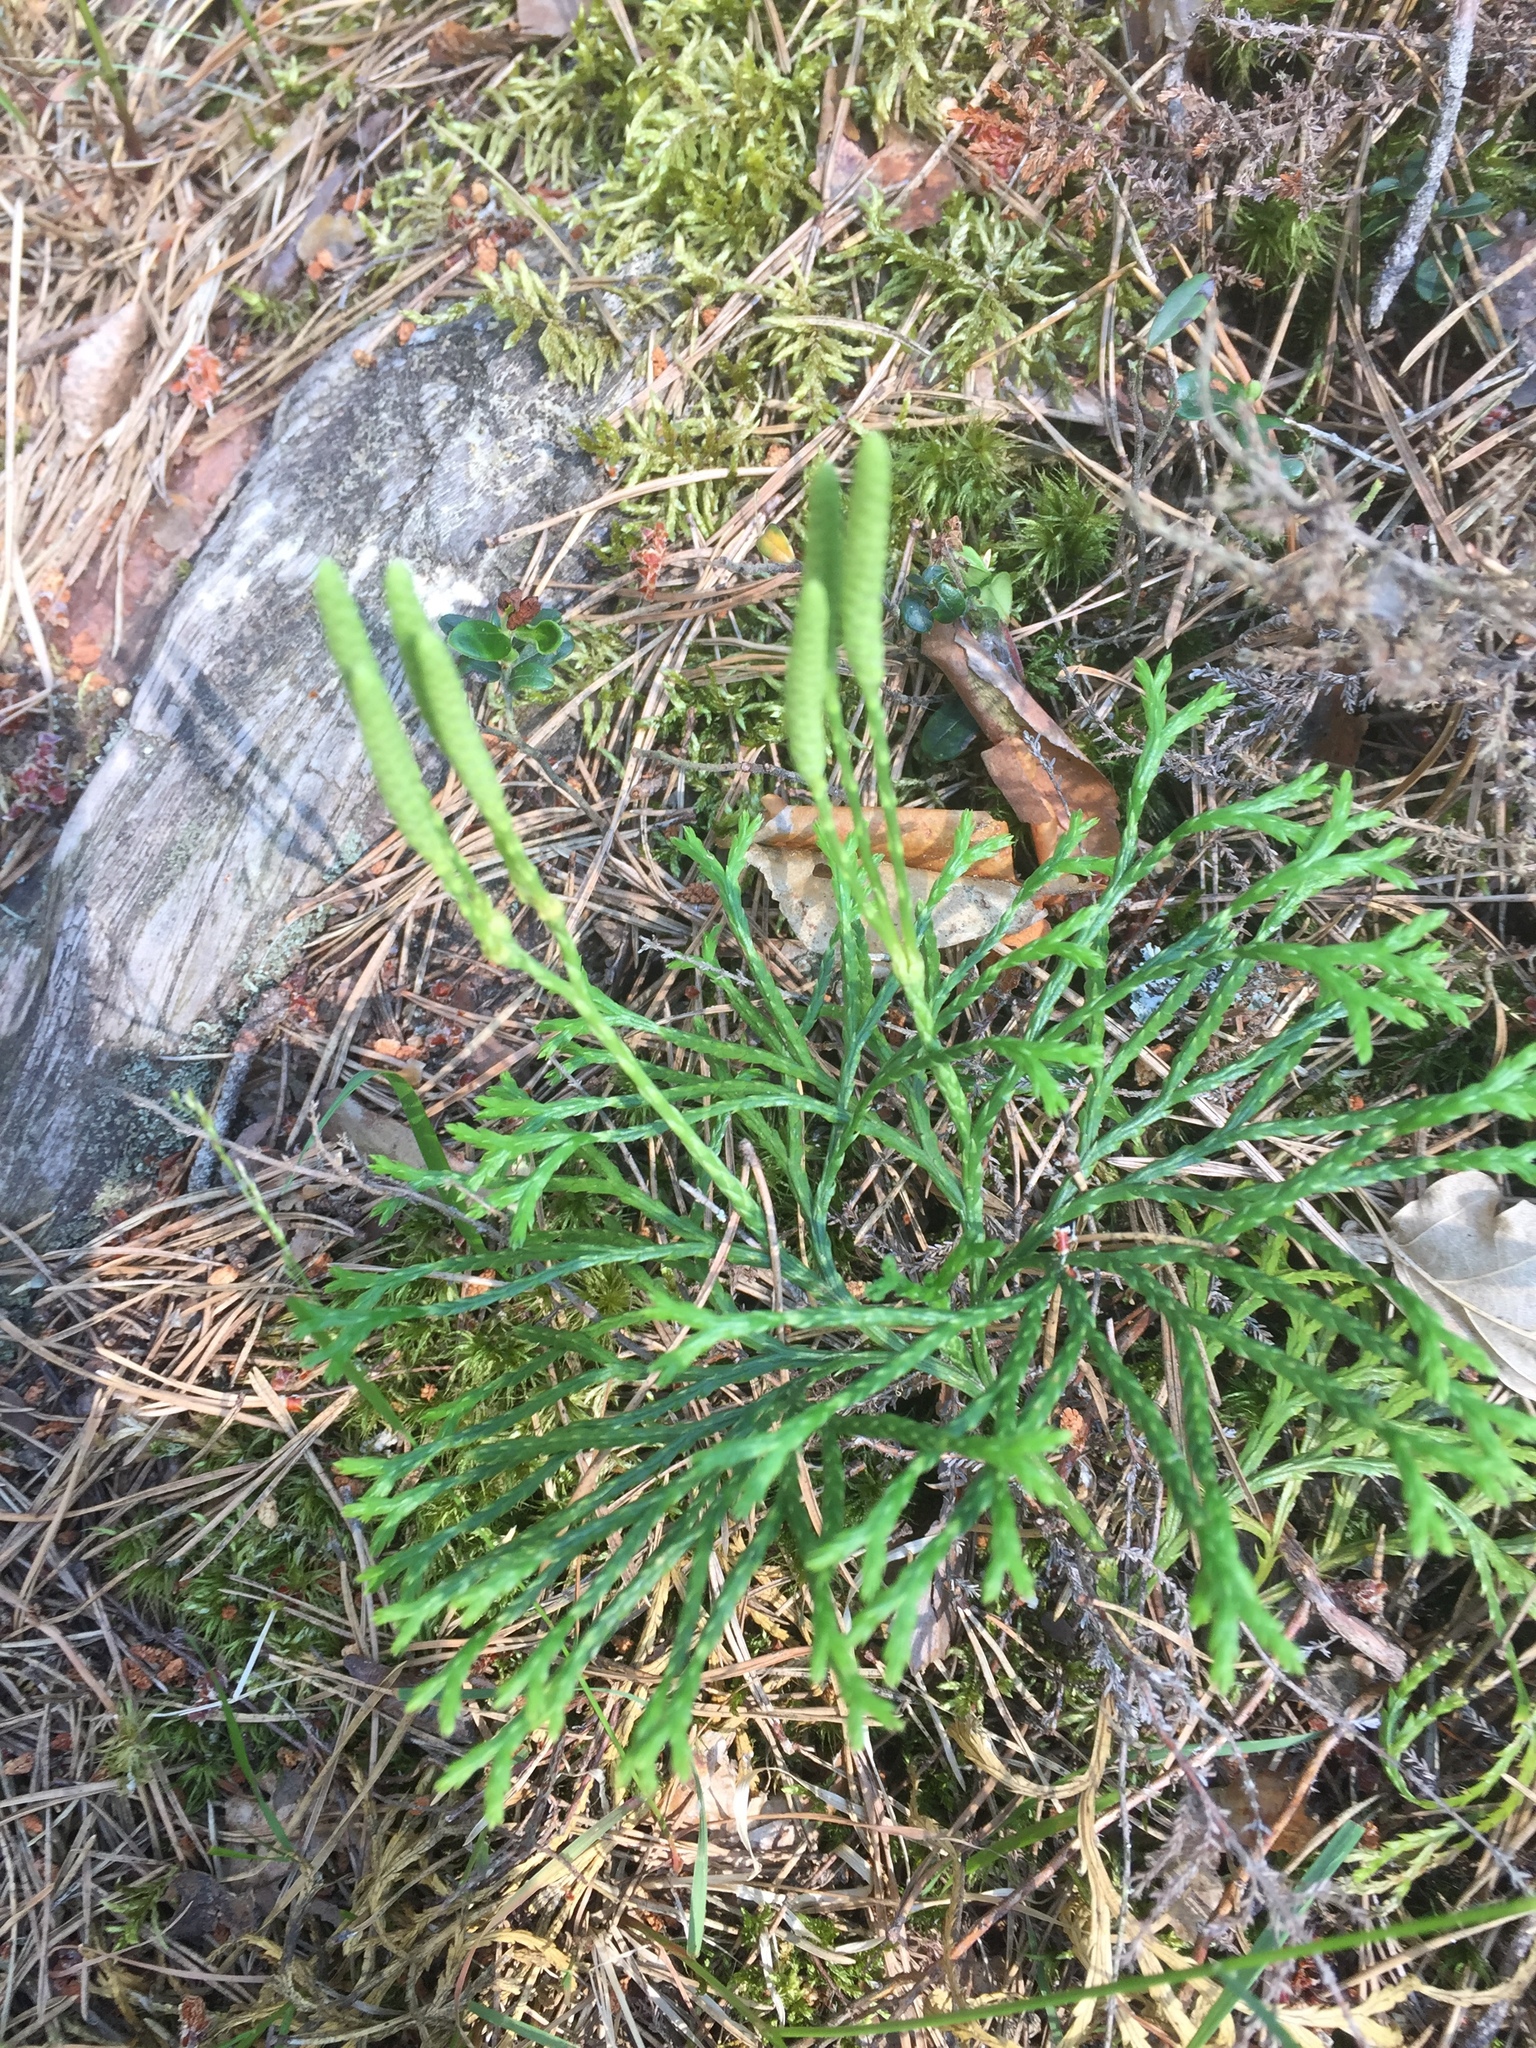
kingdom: Plantae
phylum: Tracheophyta
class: Lycopodiopsida
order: Lycopodiales
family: Lycopodiaceae
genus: Diphasiastrum
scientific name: Diphasiastrum zeilleri
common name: Zeiller's clubmoss
